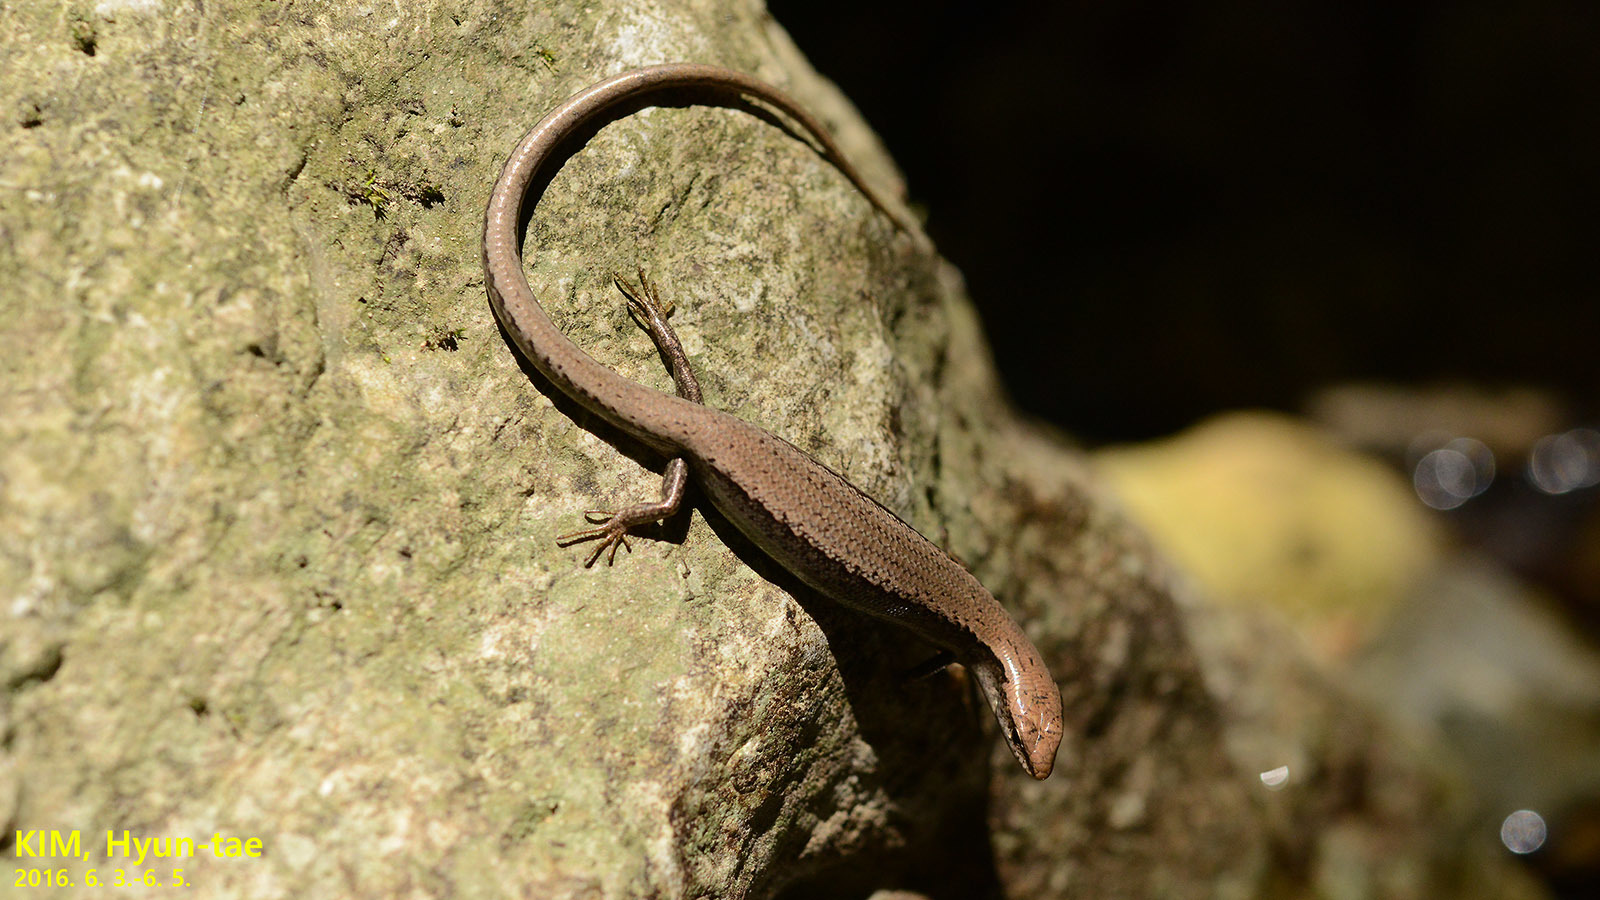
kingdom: Animalia
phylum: Chordata
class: Squamata
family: Scincidae
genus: Scincella
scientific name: Scincella vandenburghi
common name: Tsushima smooth skink
